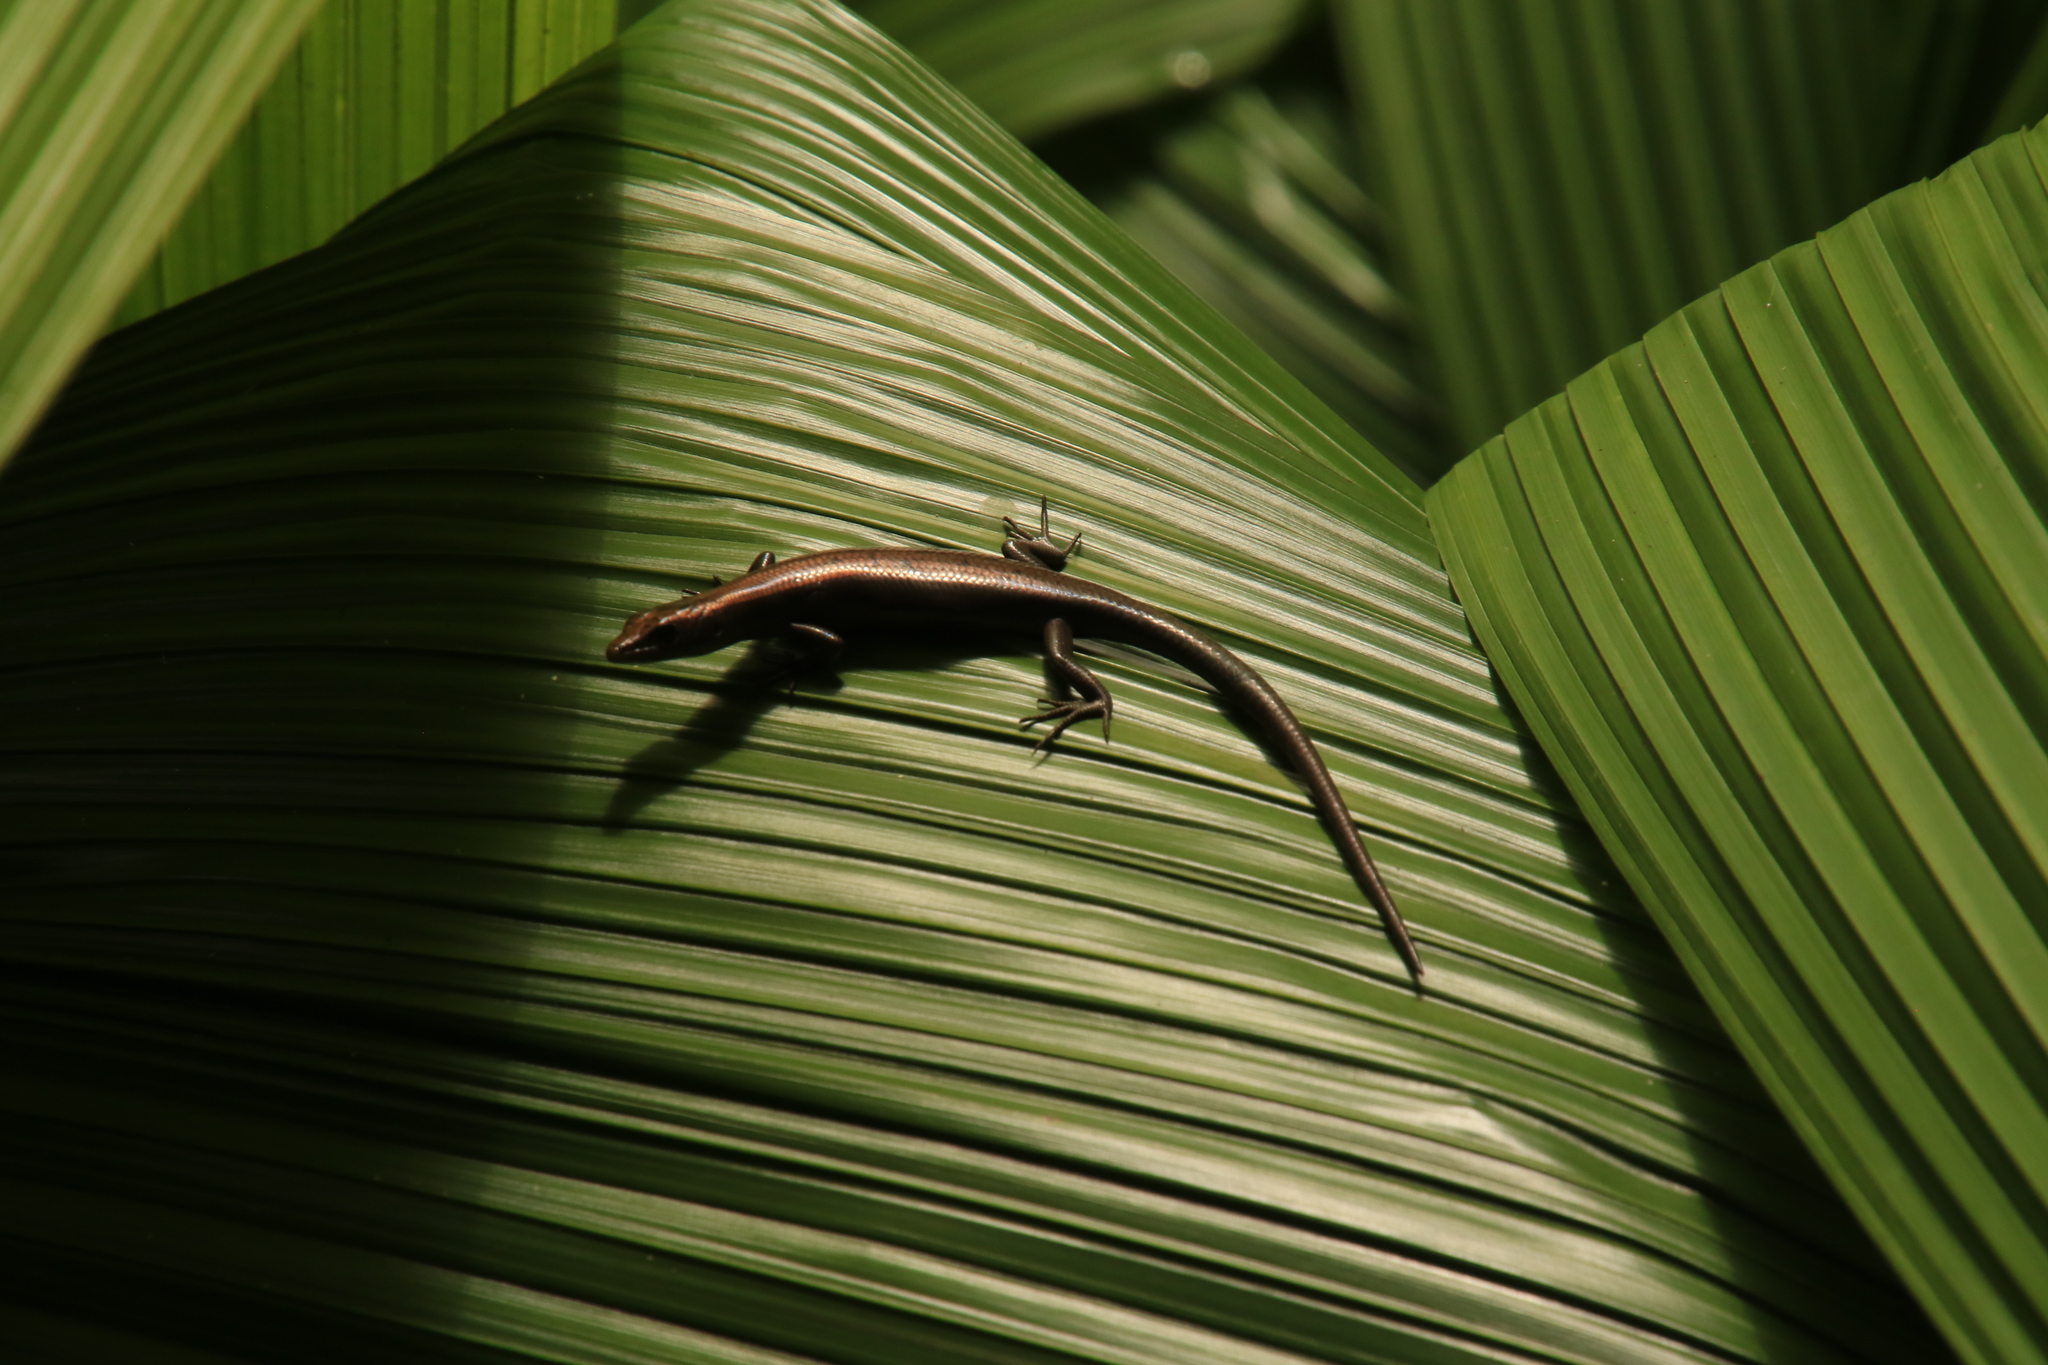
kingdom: Animalia
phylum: Chordata
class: Squamata
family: Scincidae
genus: Emoia
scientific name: Emoia impar
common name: Azure-tailed skink
